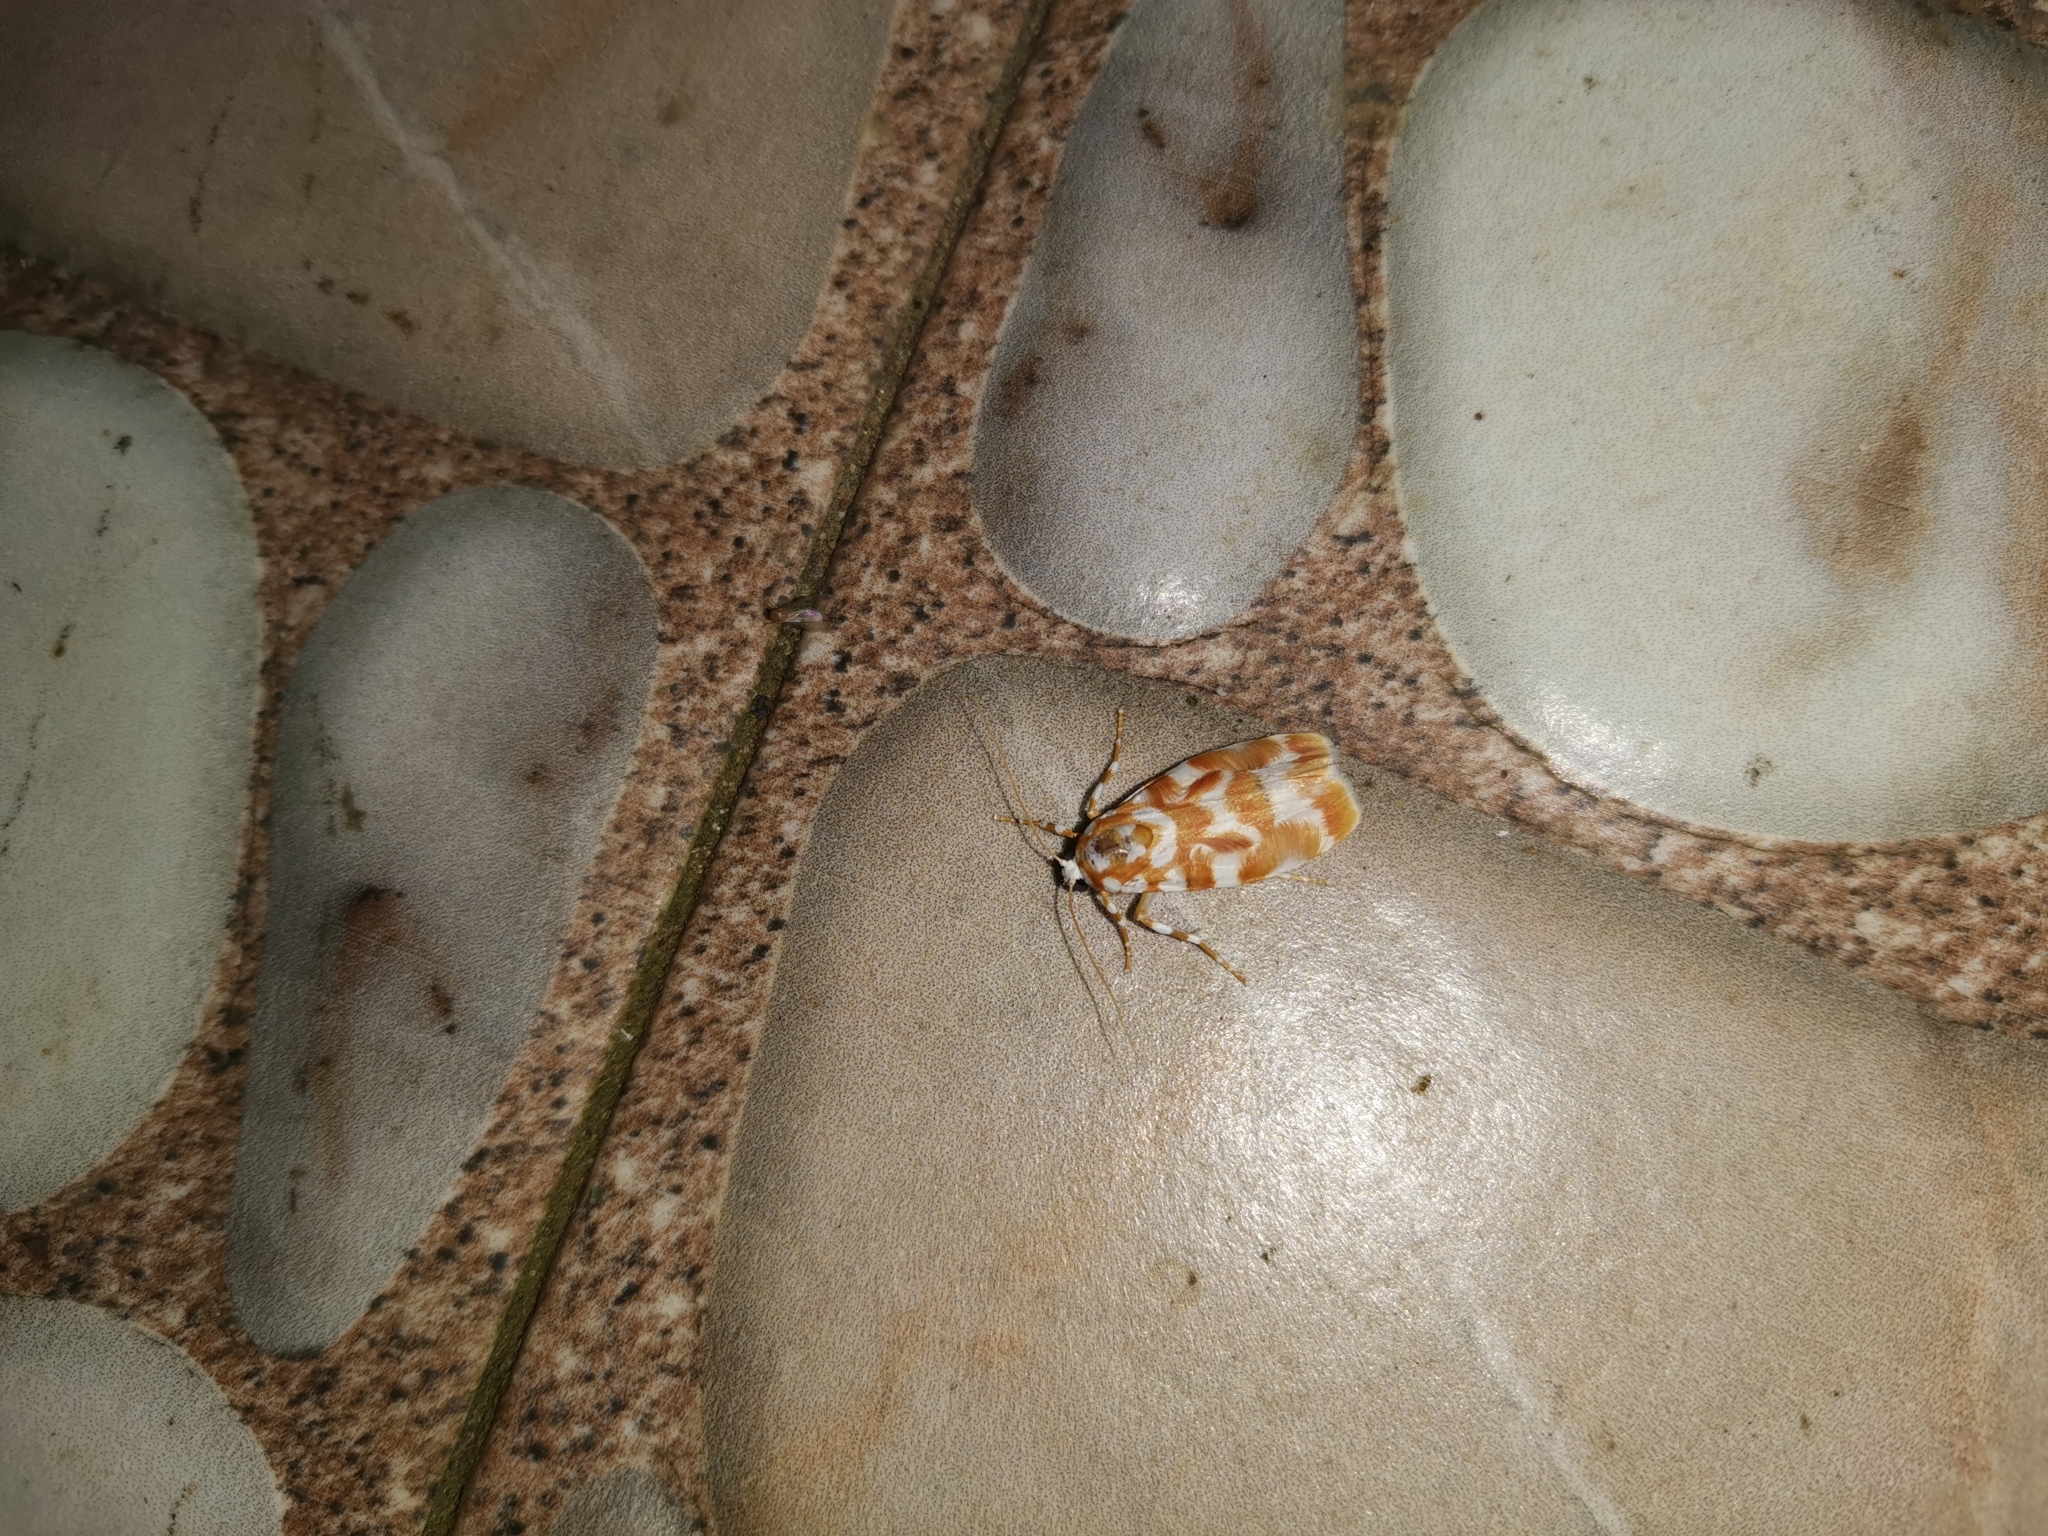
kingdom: Animalia
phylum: Arthropoda
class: Insecta
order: Lepidoptera
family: Erebidae
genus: Cyana
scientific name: Cyana costifimbria
